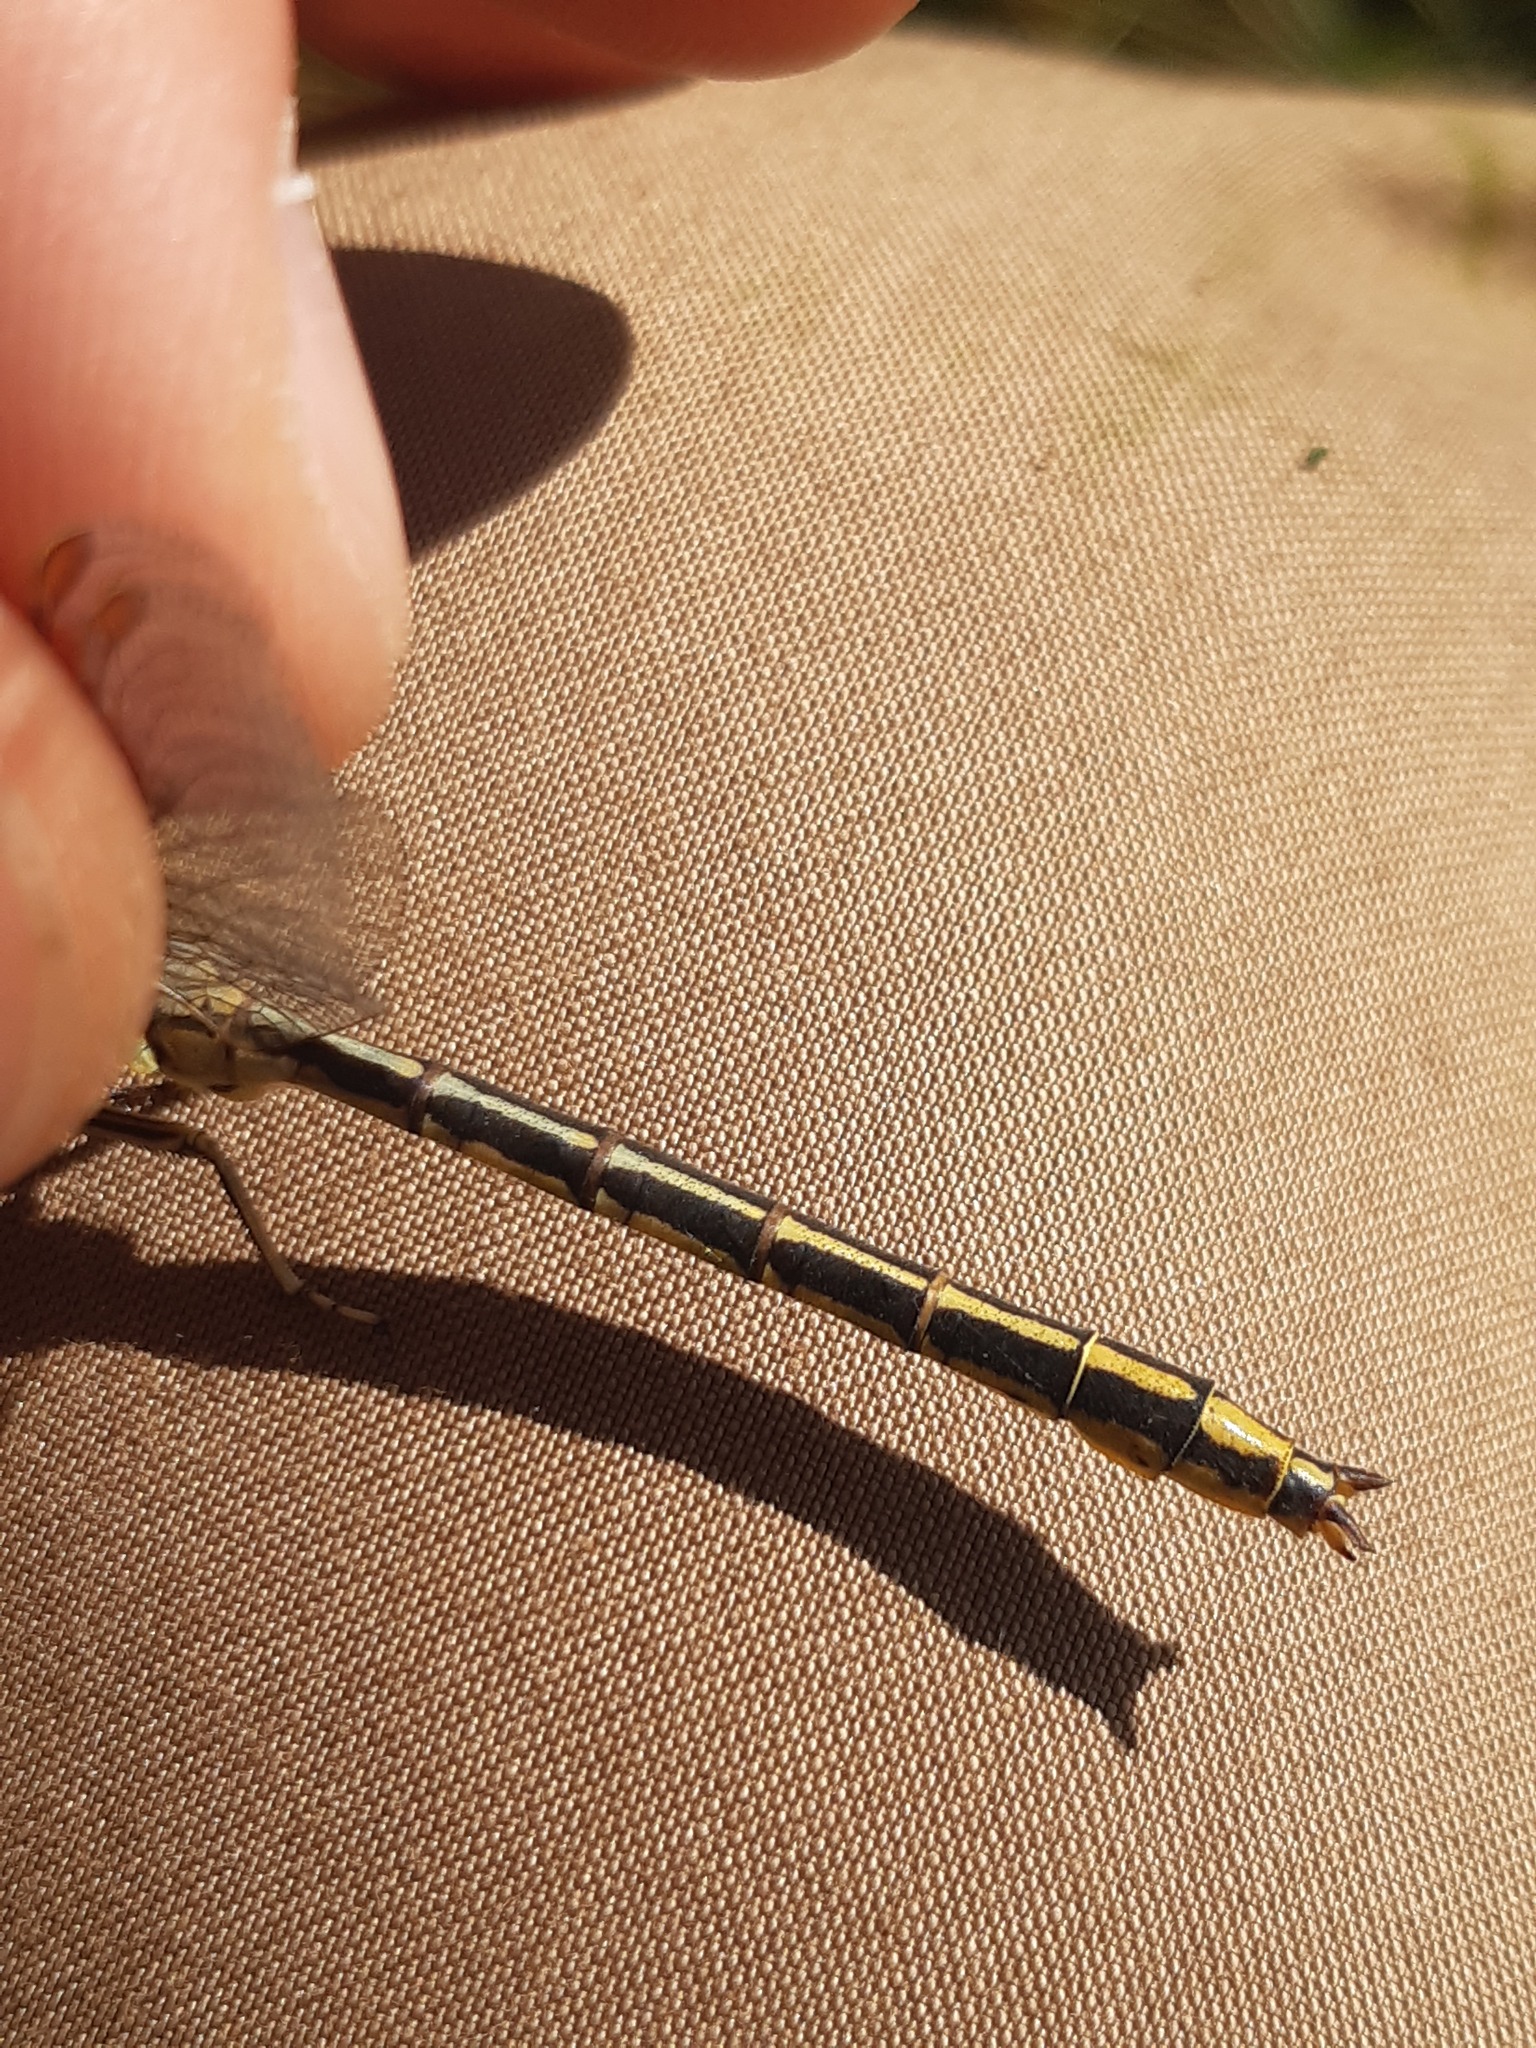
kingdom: Animalia
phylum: Arthropoda
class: Insecta
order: Odonata
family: Gomphidae
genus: Gomphus
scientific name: Gomphus pulchellus
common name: Western clubtail
